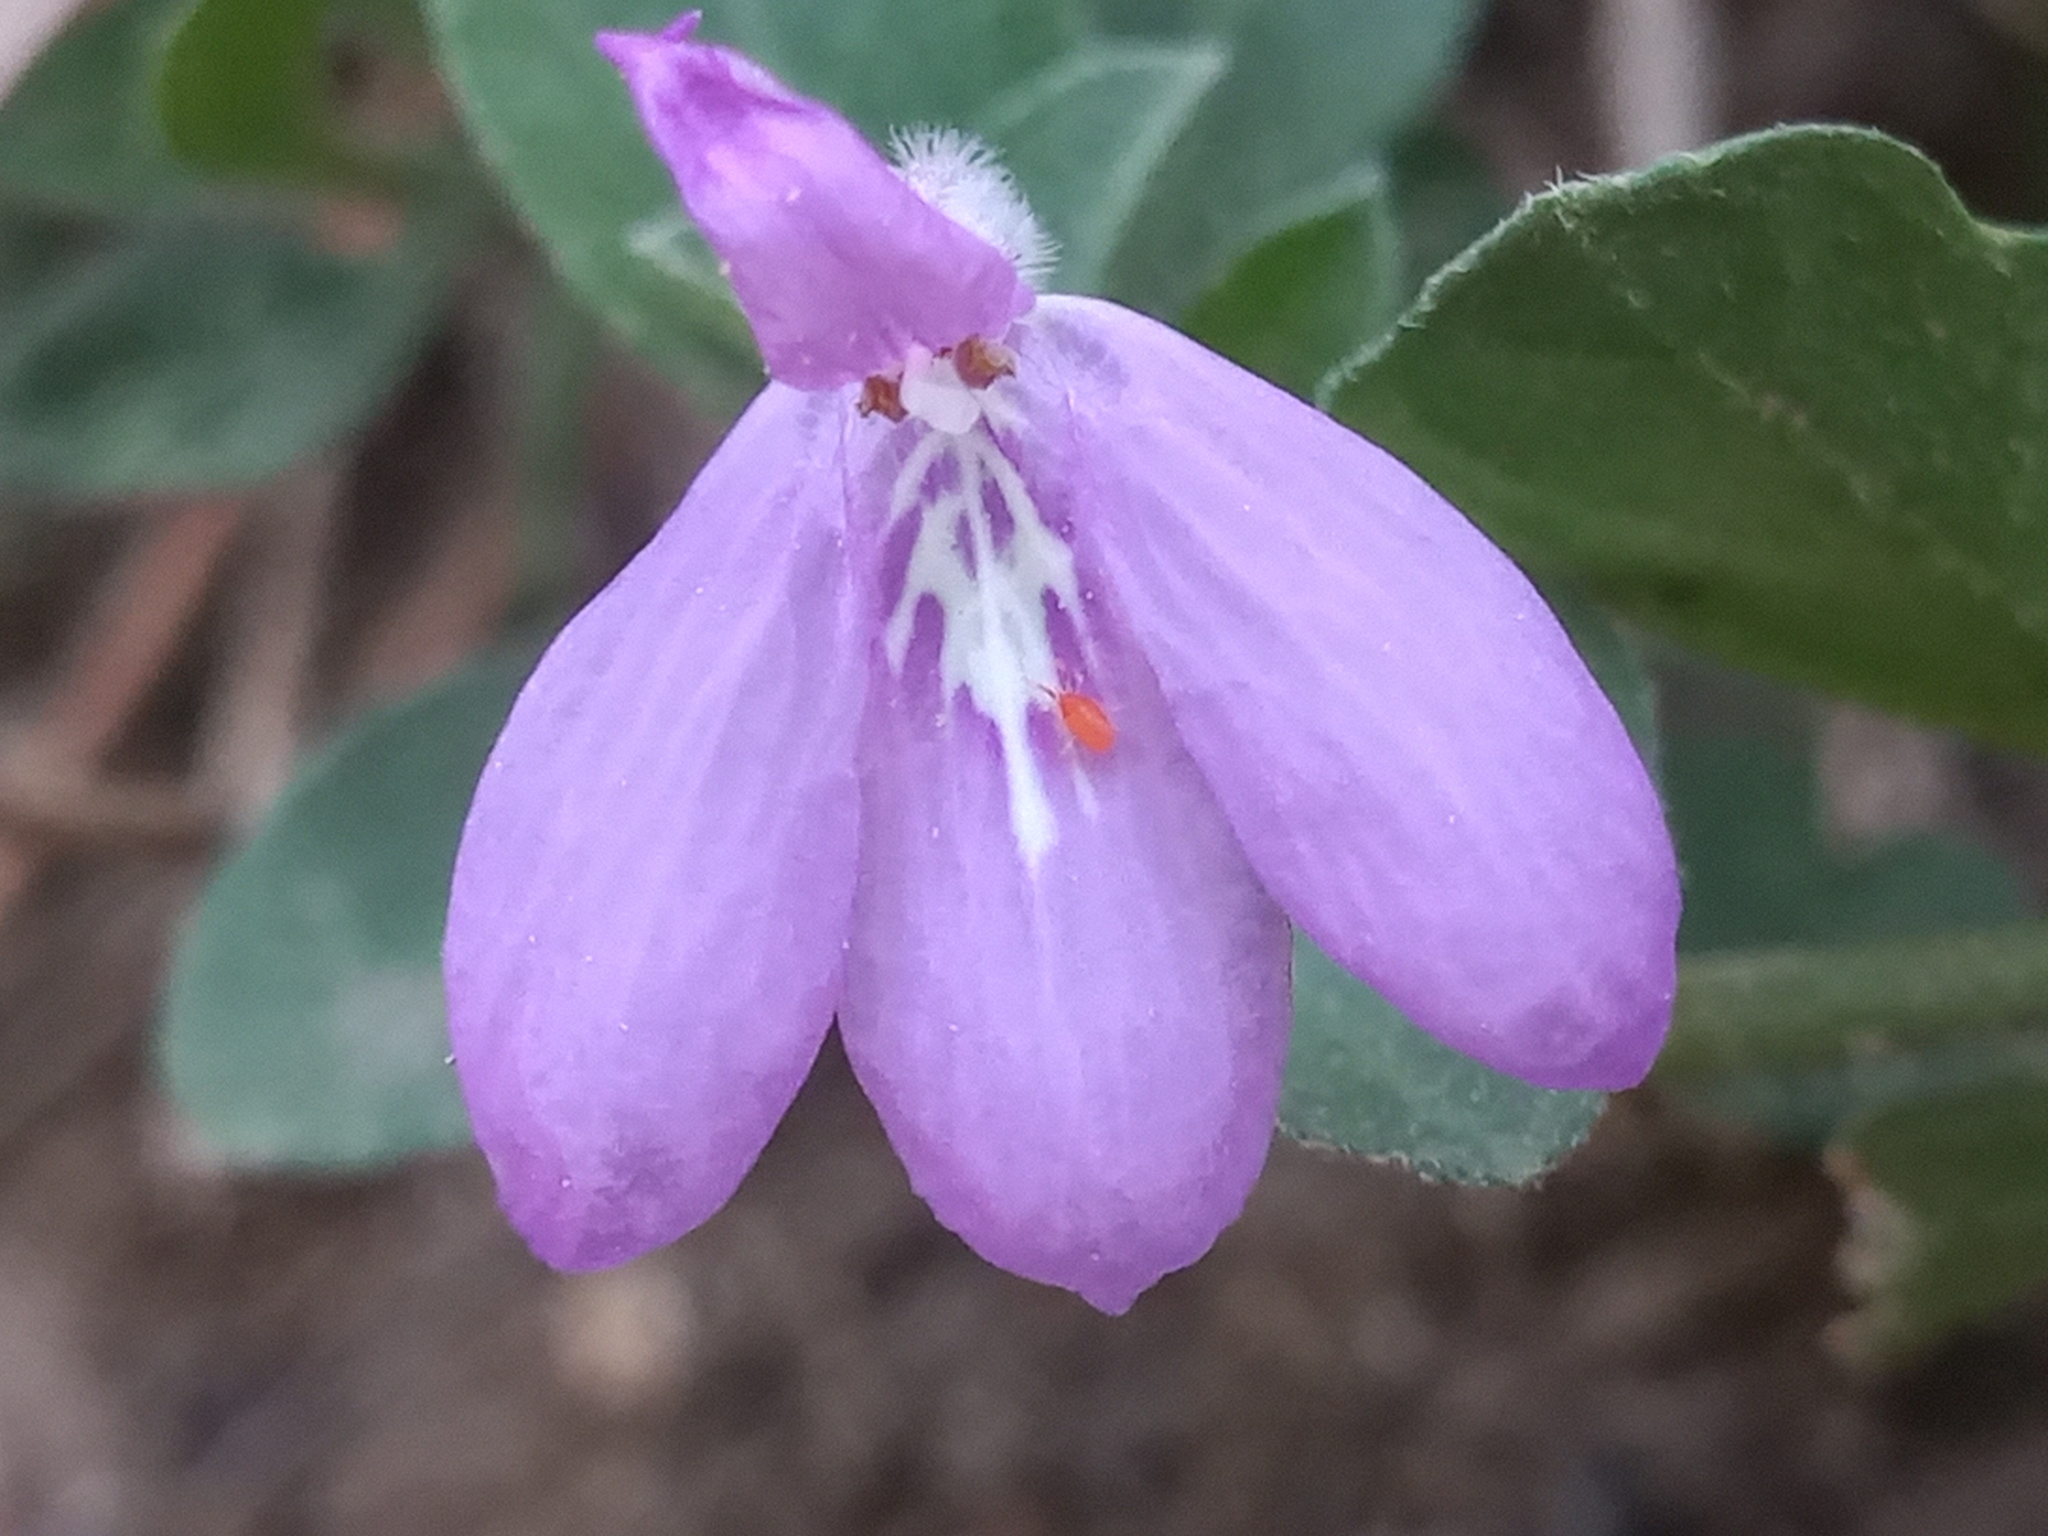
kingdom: Plantae
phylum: Tracheophyta
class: Magnoliopsida
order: Lamiales
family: Acanthaceae
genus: Justicia
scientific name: Justicia pilosella
